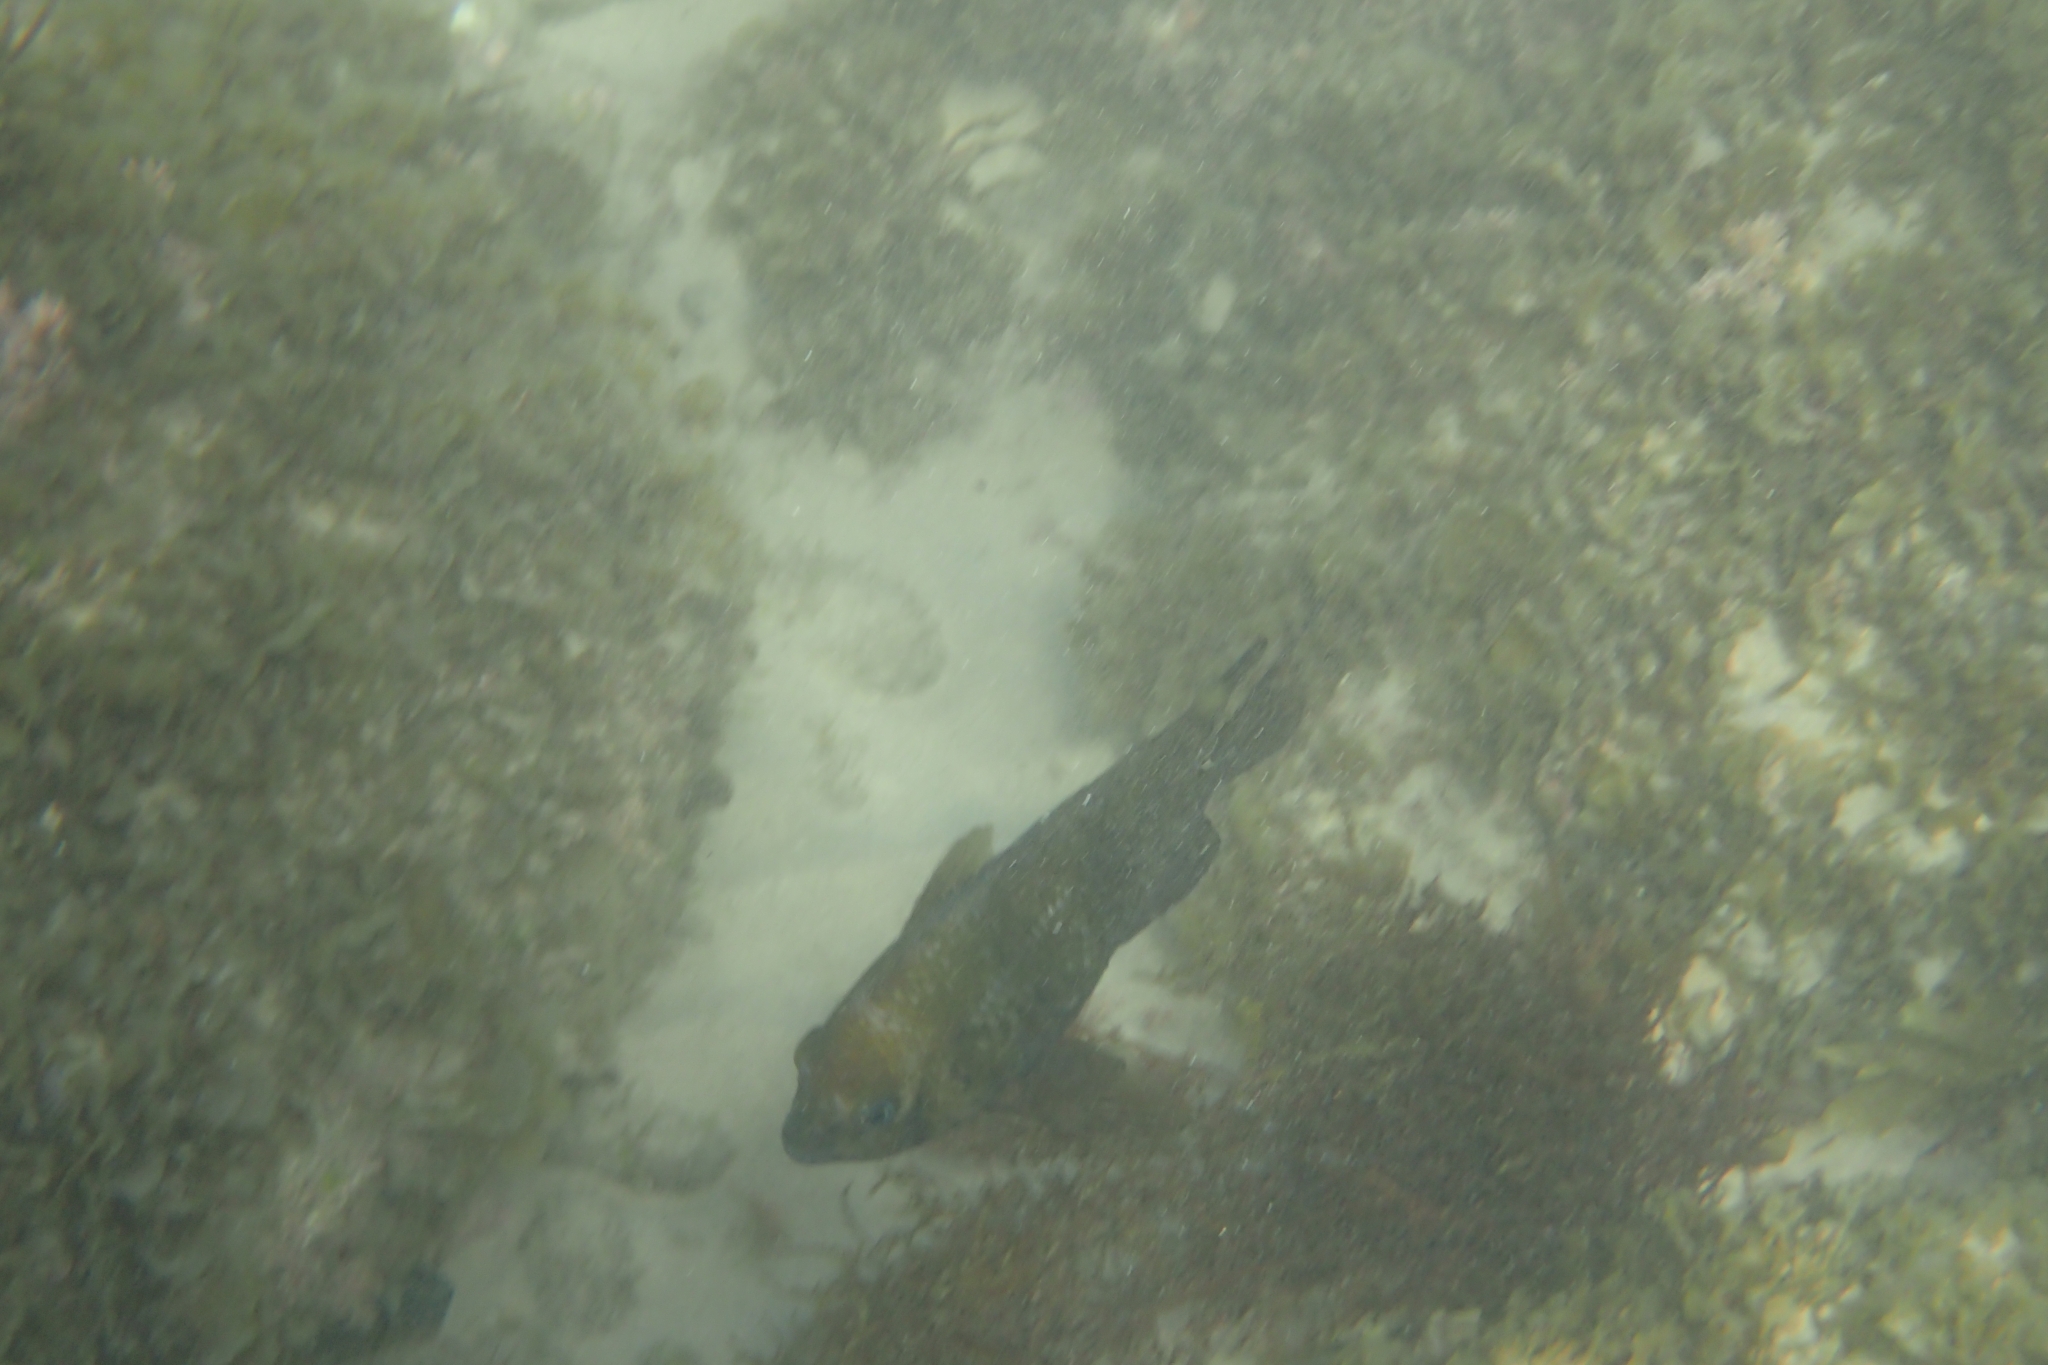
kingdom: Animalia
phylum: Chordata
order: Perciformes
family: Pomacentridae
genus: Parma
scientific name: Parma polylepis
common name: Banded parma
